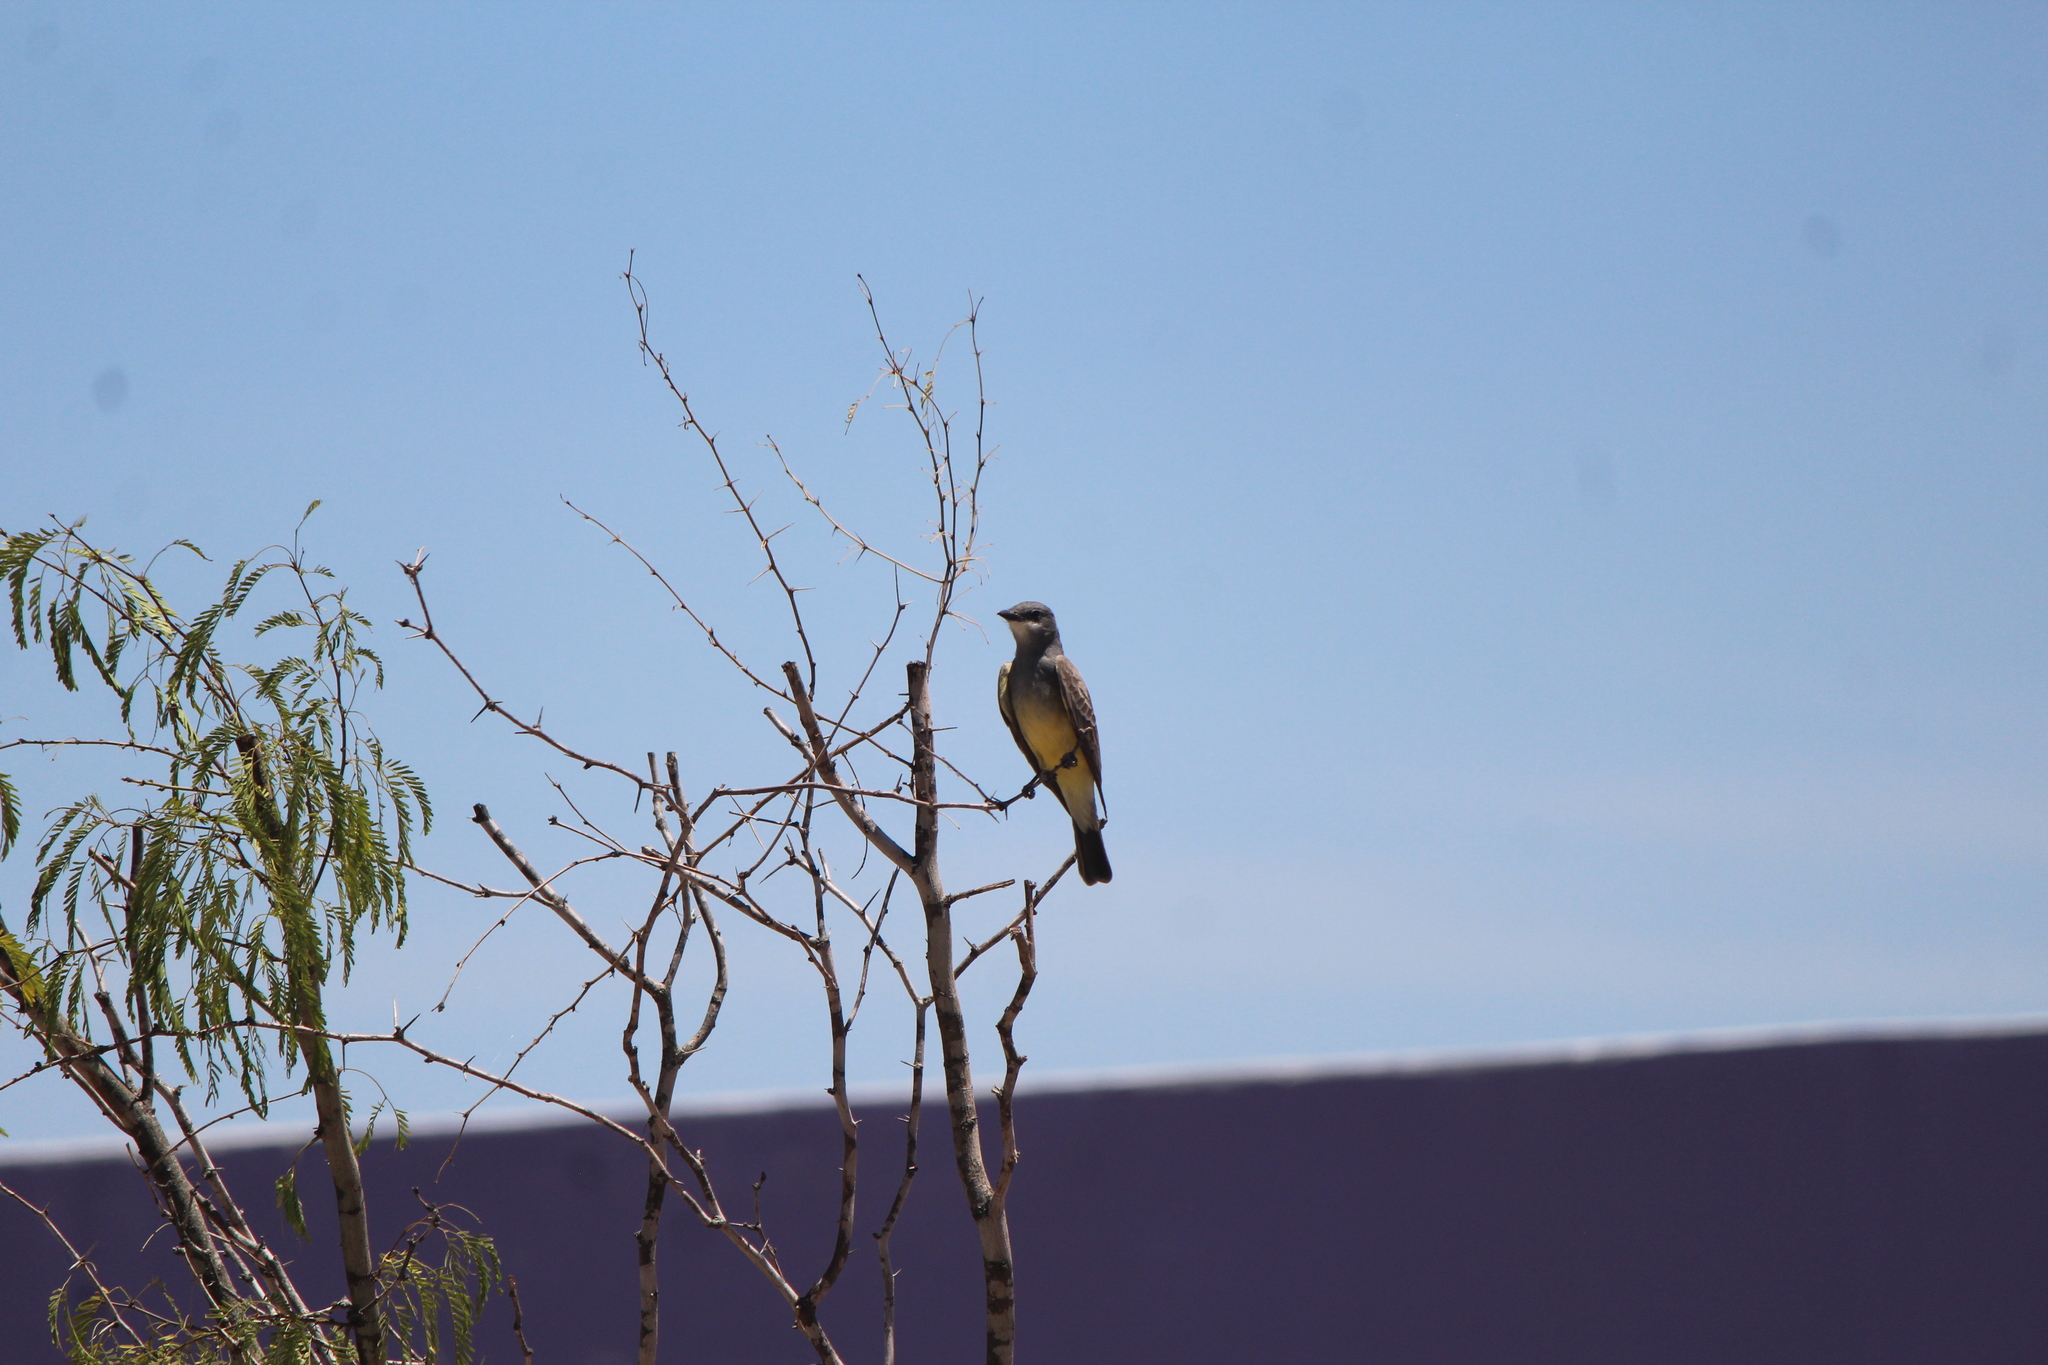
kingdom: Animalia
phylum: Chordata
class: Aves
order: Passeriformes
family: Tyrannidae
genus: Tyrannus
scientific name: Tyrannus vociferans
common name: Cassin's kingbird
